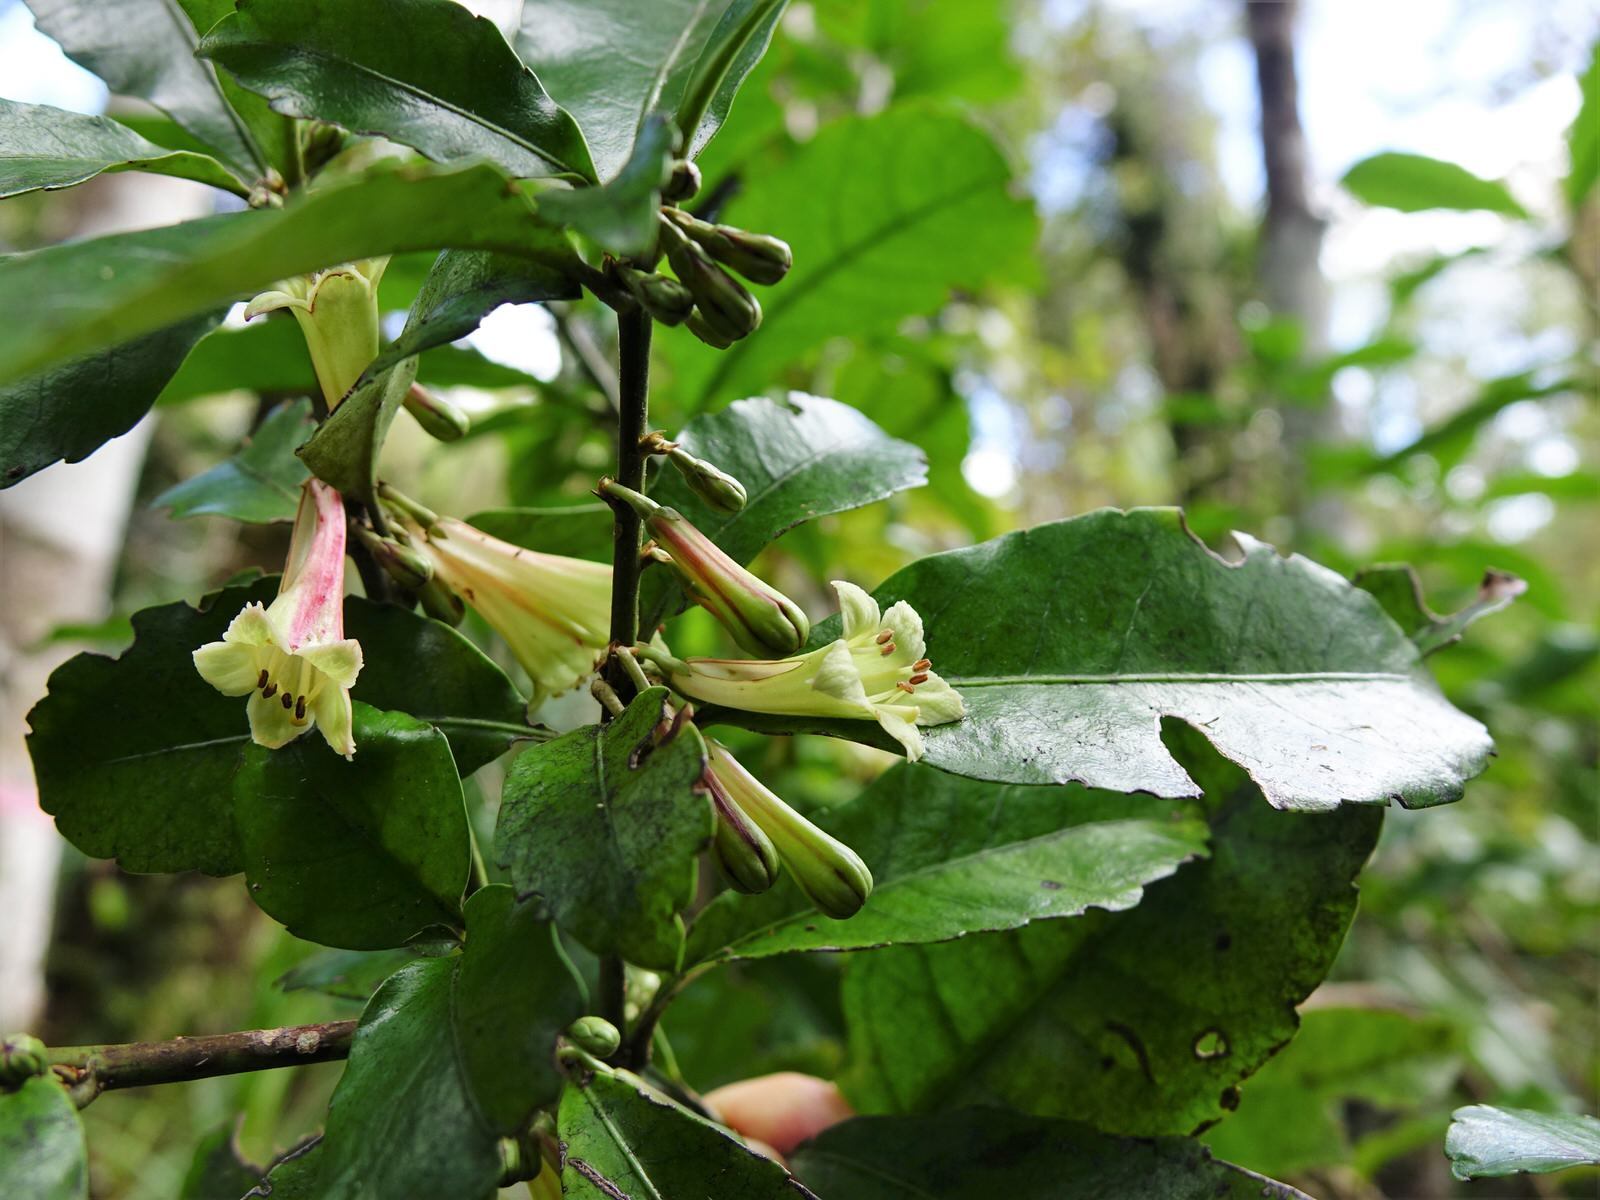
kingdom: Plantae
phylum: Tracheophyta
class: Magnoliopsida
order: Asterales
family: Alseuosmiaceae
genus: Alseuosmia
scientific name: Alseuosmia macrophylla
